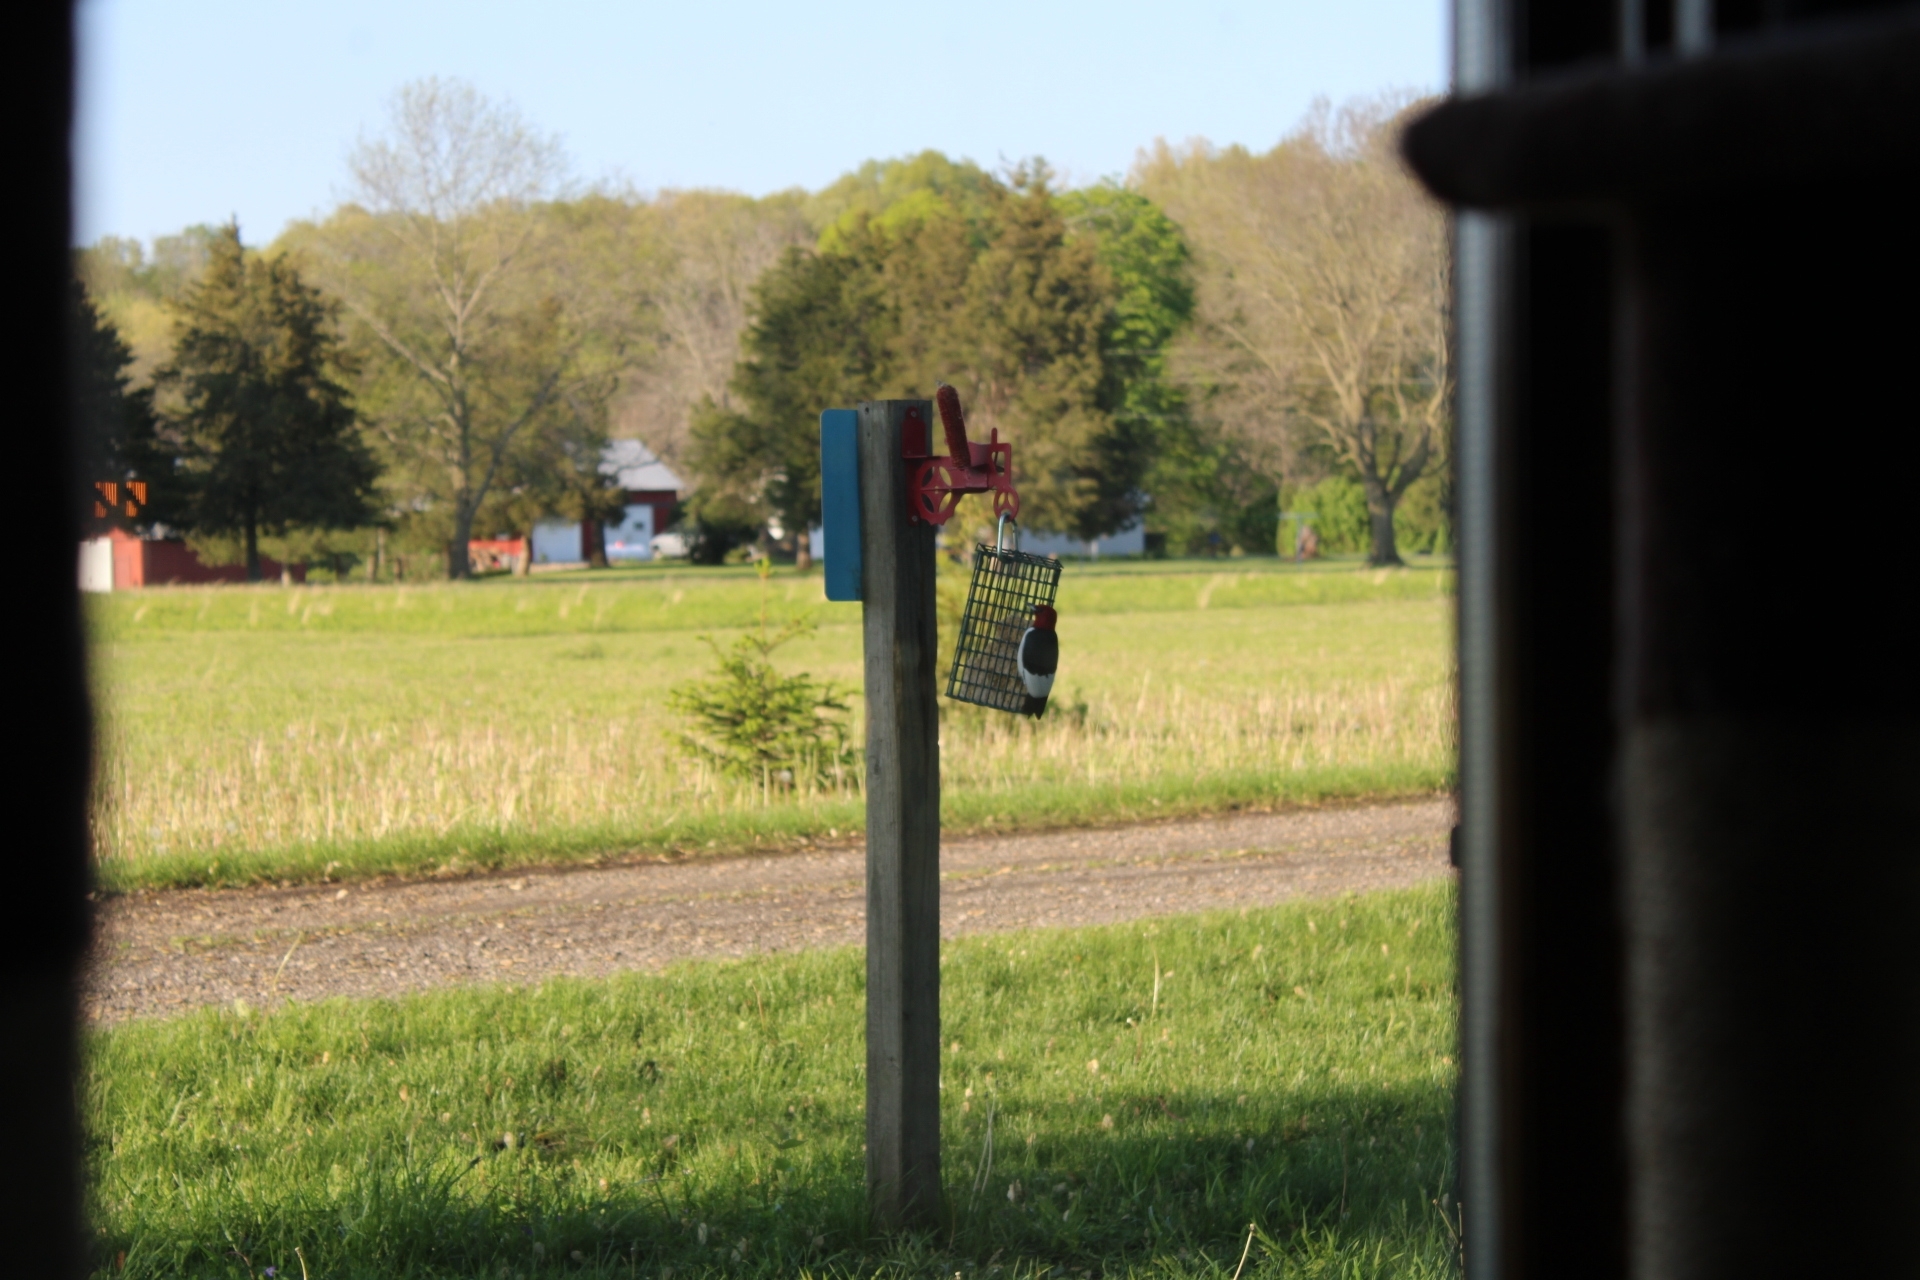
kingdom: Animalia
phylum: Chordata
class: Aves
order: Piciformes
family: Picidae
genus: Melanerpes
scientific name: Melanerpes erythrocephalus
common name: Red-headed woodpecker
